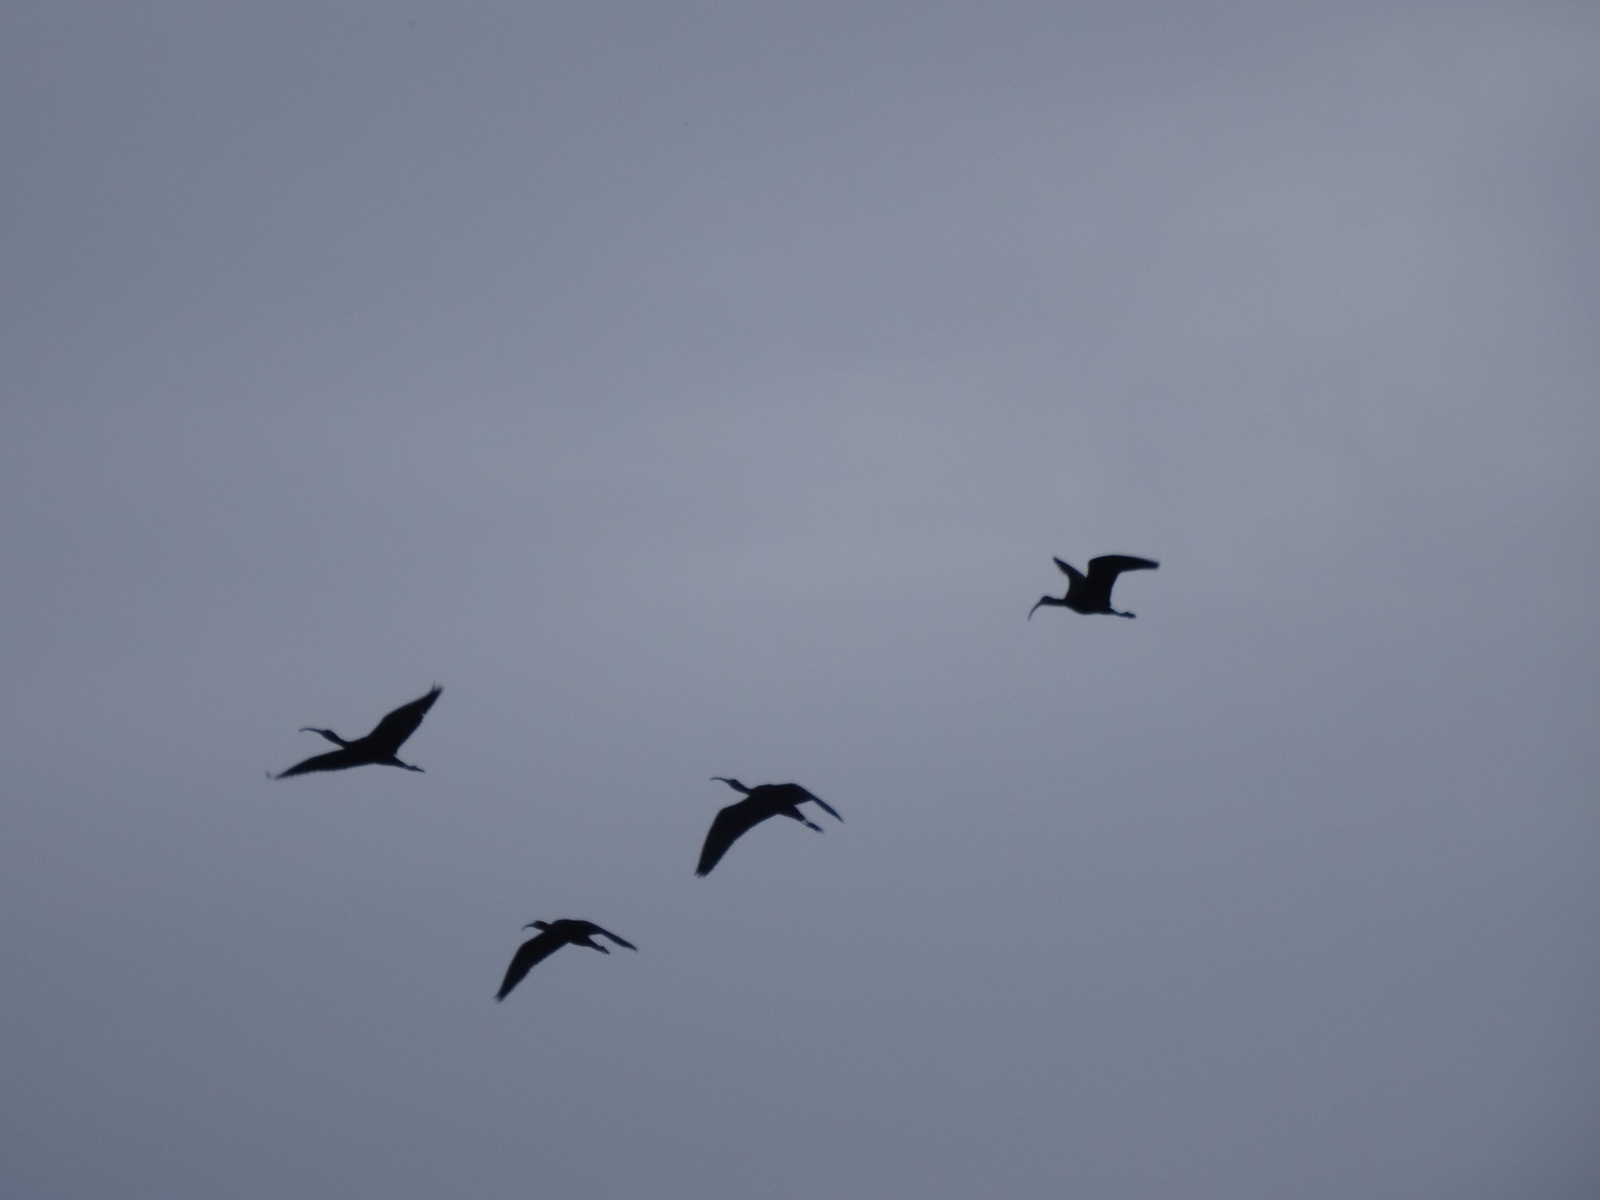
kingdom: Animalia
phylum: Chordata
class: Aves
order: Pelecaniformes
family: Threskiornithidae
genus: Plegadis
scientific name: Plegadis falcinellus
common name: Glossy ibis
